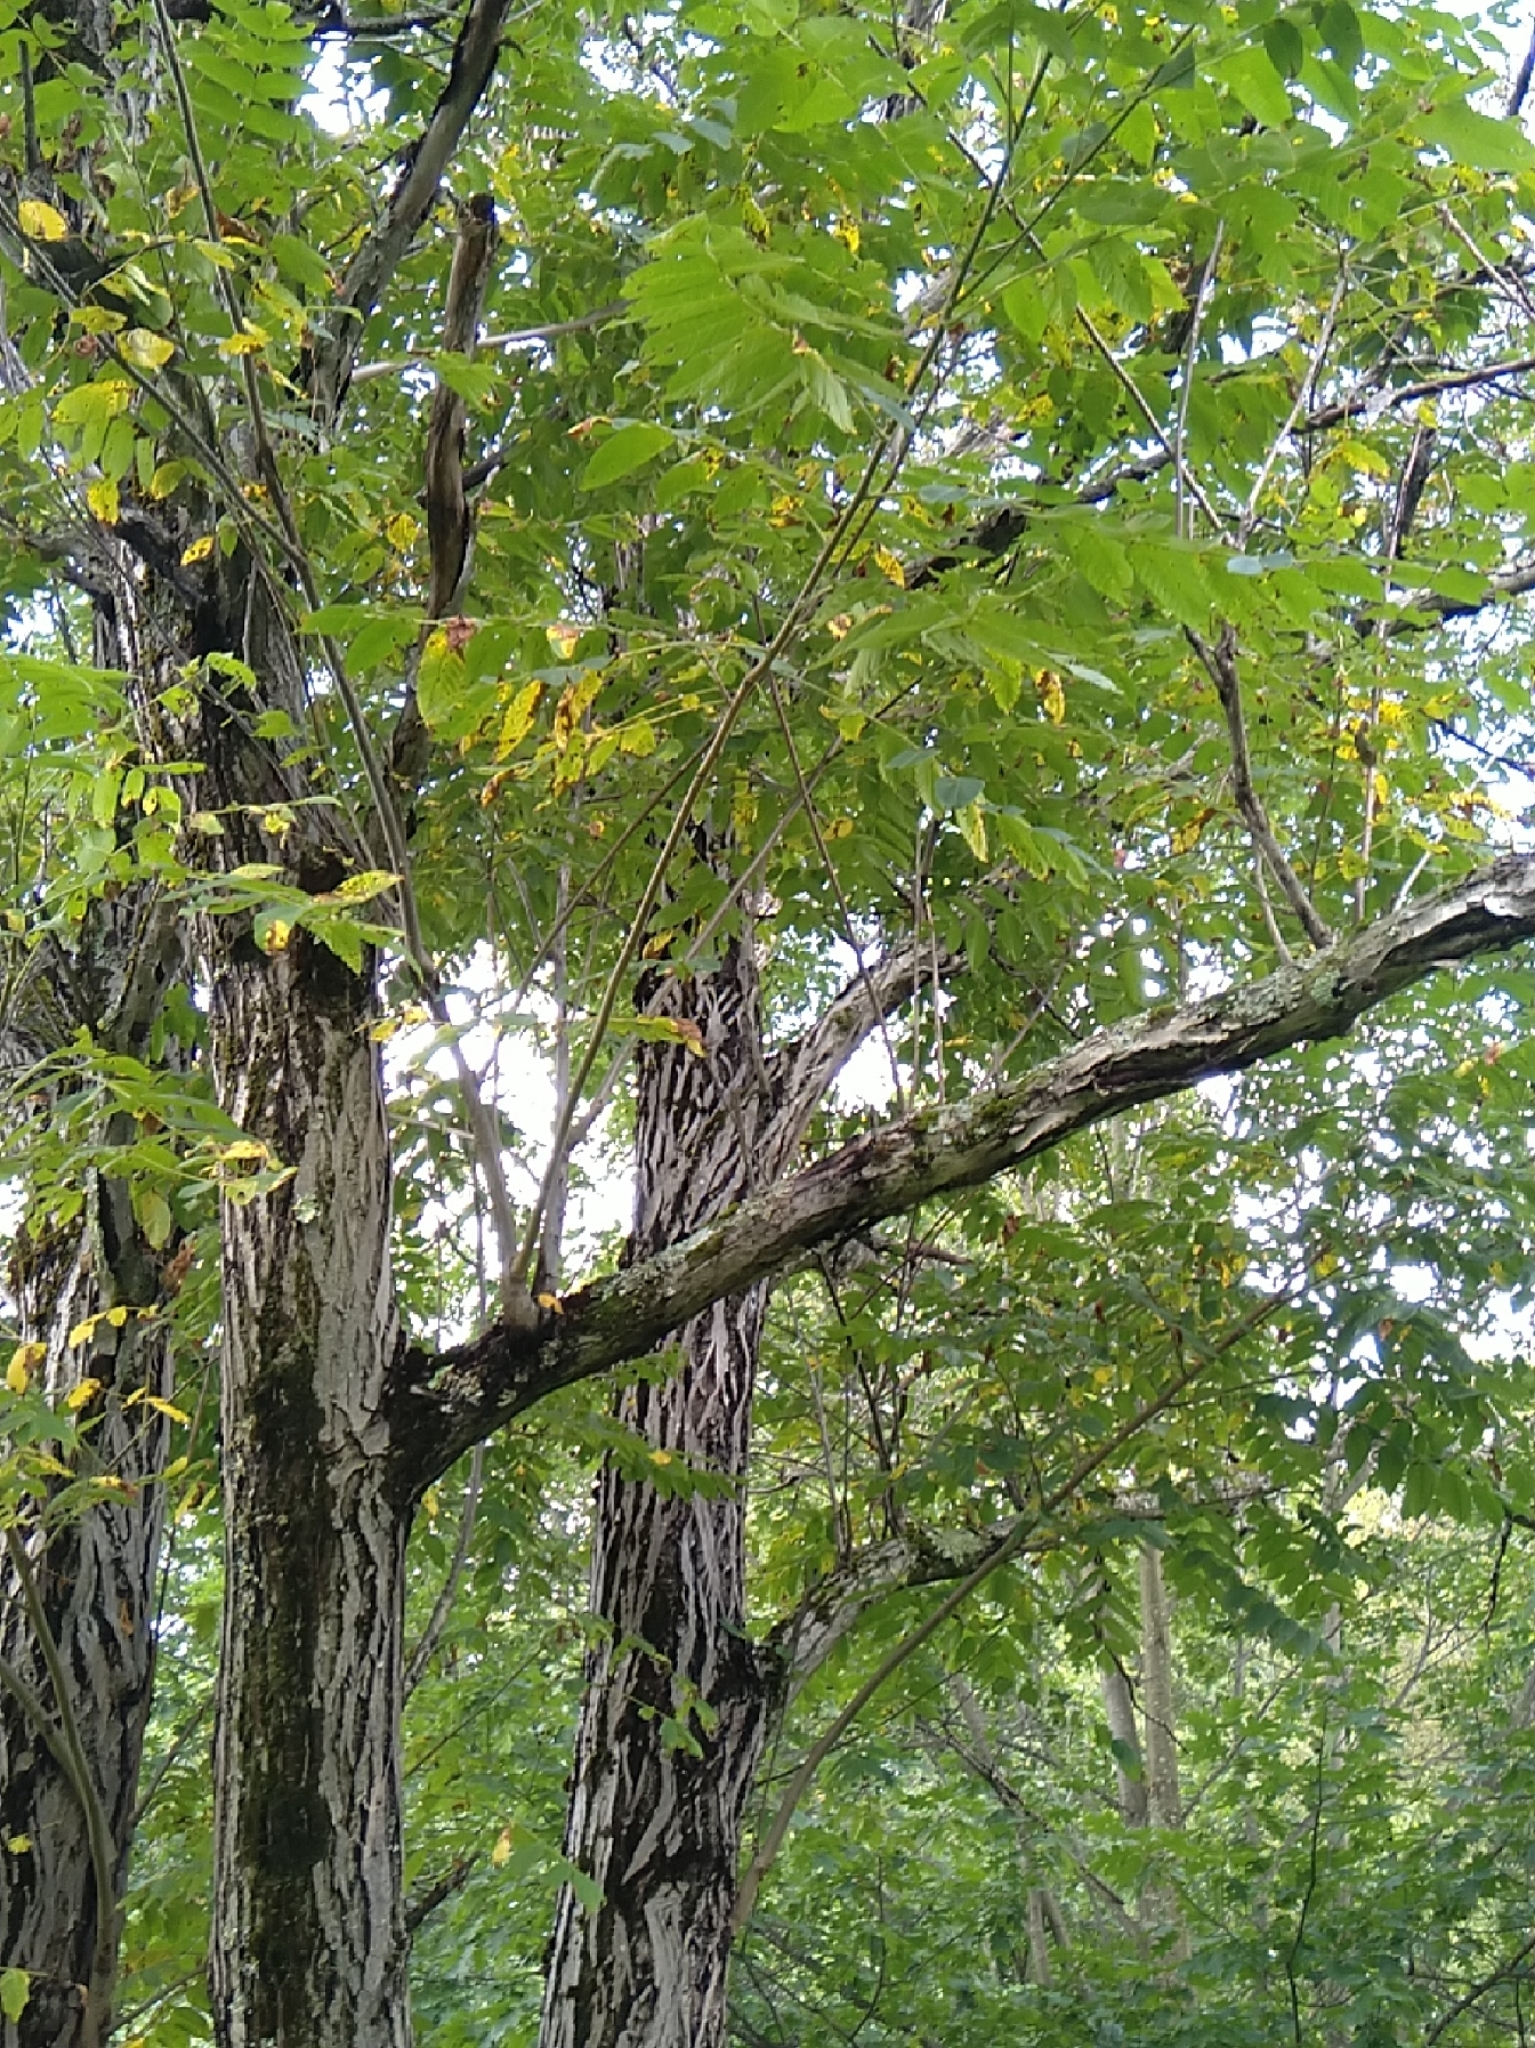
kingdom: Plantae
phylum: Tracheophyta
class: Magnoliopsida
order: Fagales
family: Juglandaceae
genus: Juglans
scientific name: Juglans cinerea
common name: Butternut
